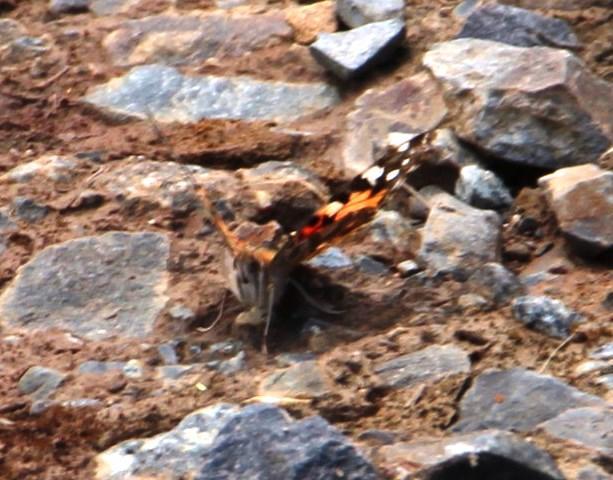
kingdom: Animalia
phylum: Arthropoda
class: Insecta
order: Lepidoptera
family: Nymphalidae
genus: Vanessa
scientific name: Vanessa cardui
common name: Painted lady
